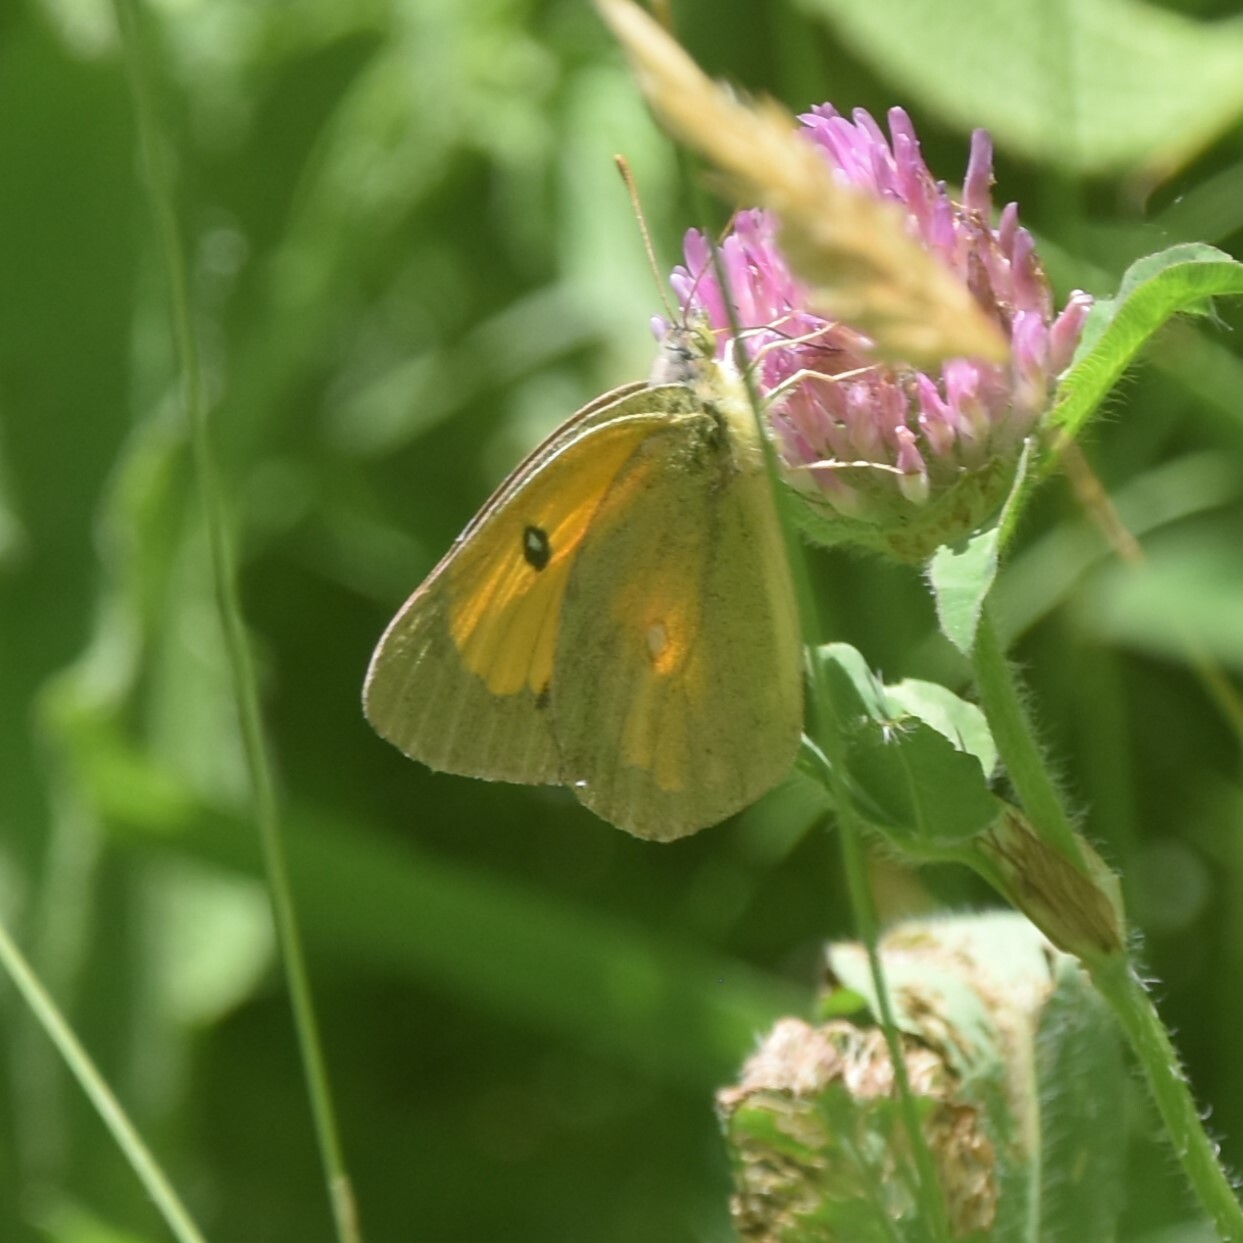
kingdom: Animalia
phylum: Arthropoda
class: Insecta
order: Lepidoptera
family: Pieridae
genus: Colias
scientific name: Colias fieldii
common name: Dark clouded yellow
